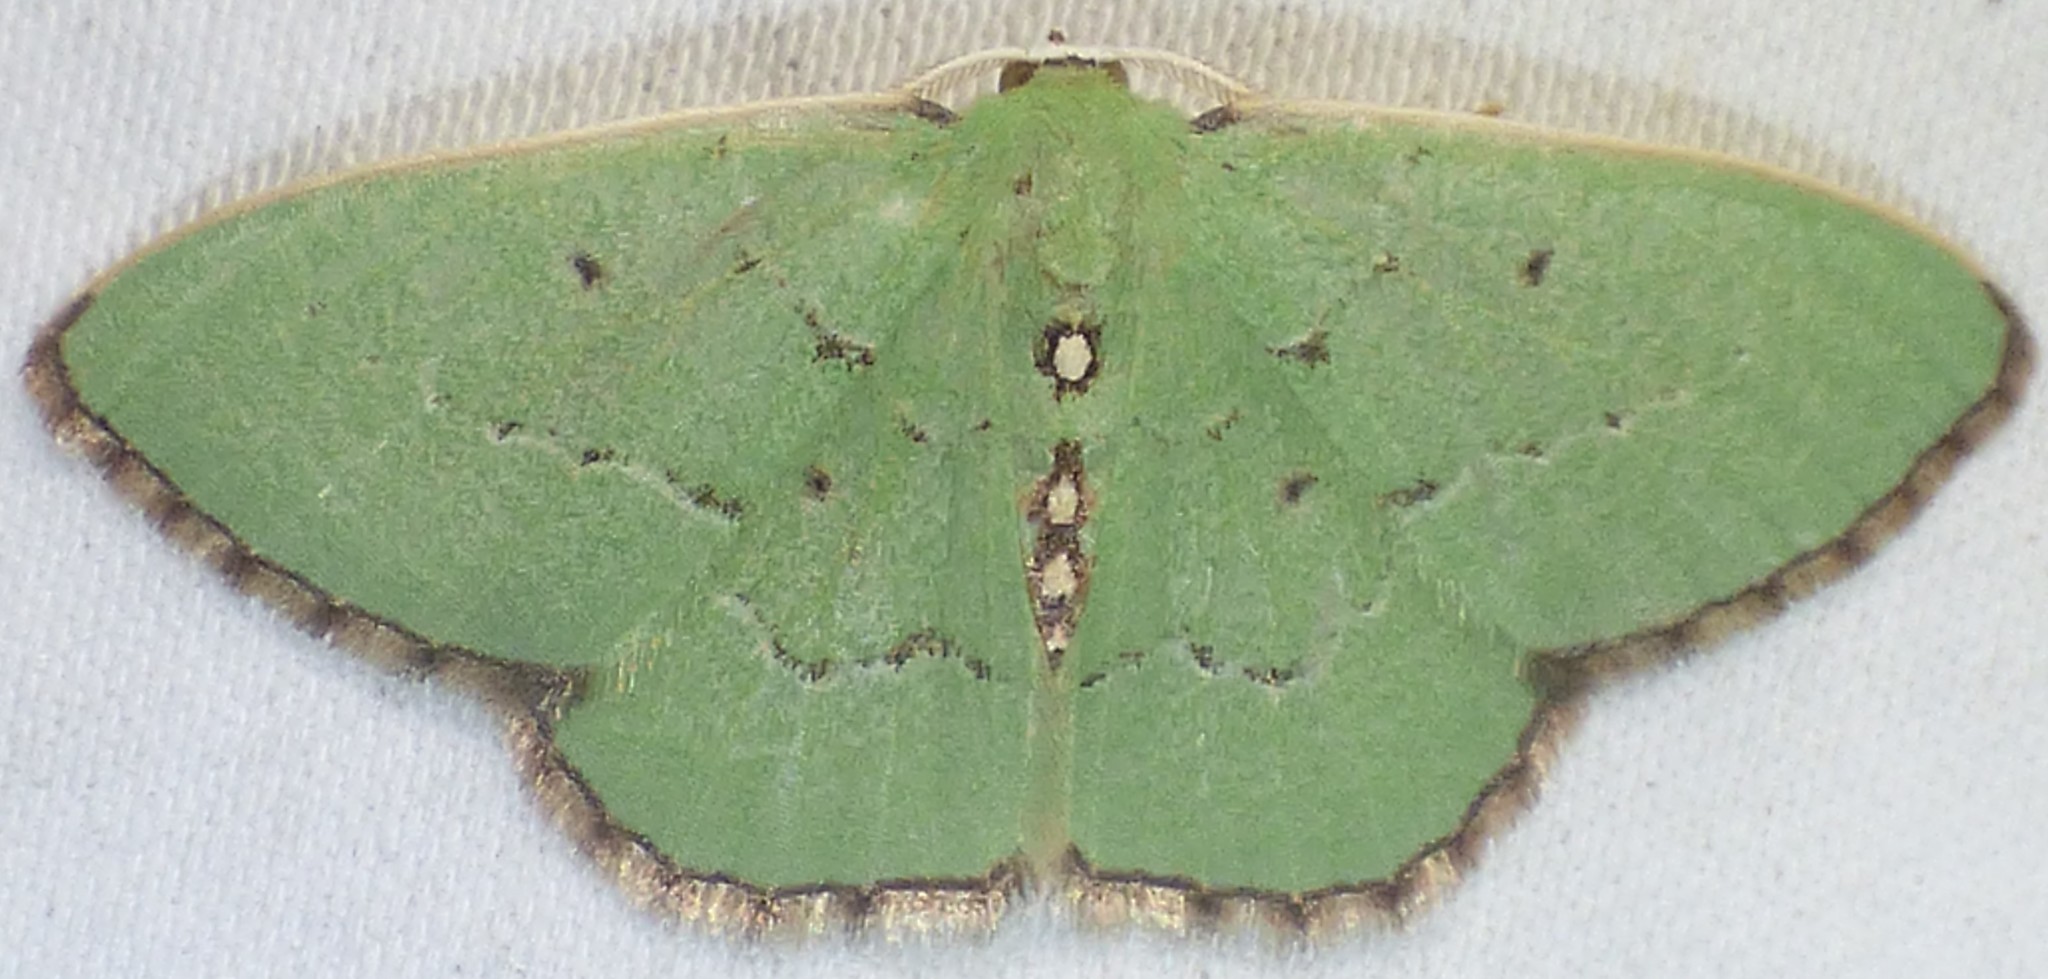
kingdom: Animalia
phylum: Arthropoda
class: Insecta
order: Lepidoptera
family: Geometridae
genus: Nemoria
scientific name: Nemoria lixaria
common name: Red-bordered emerald
